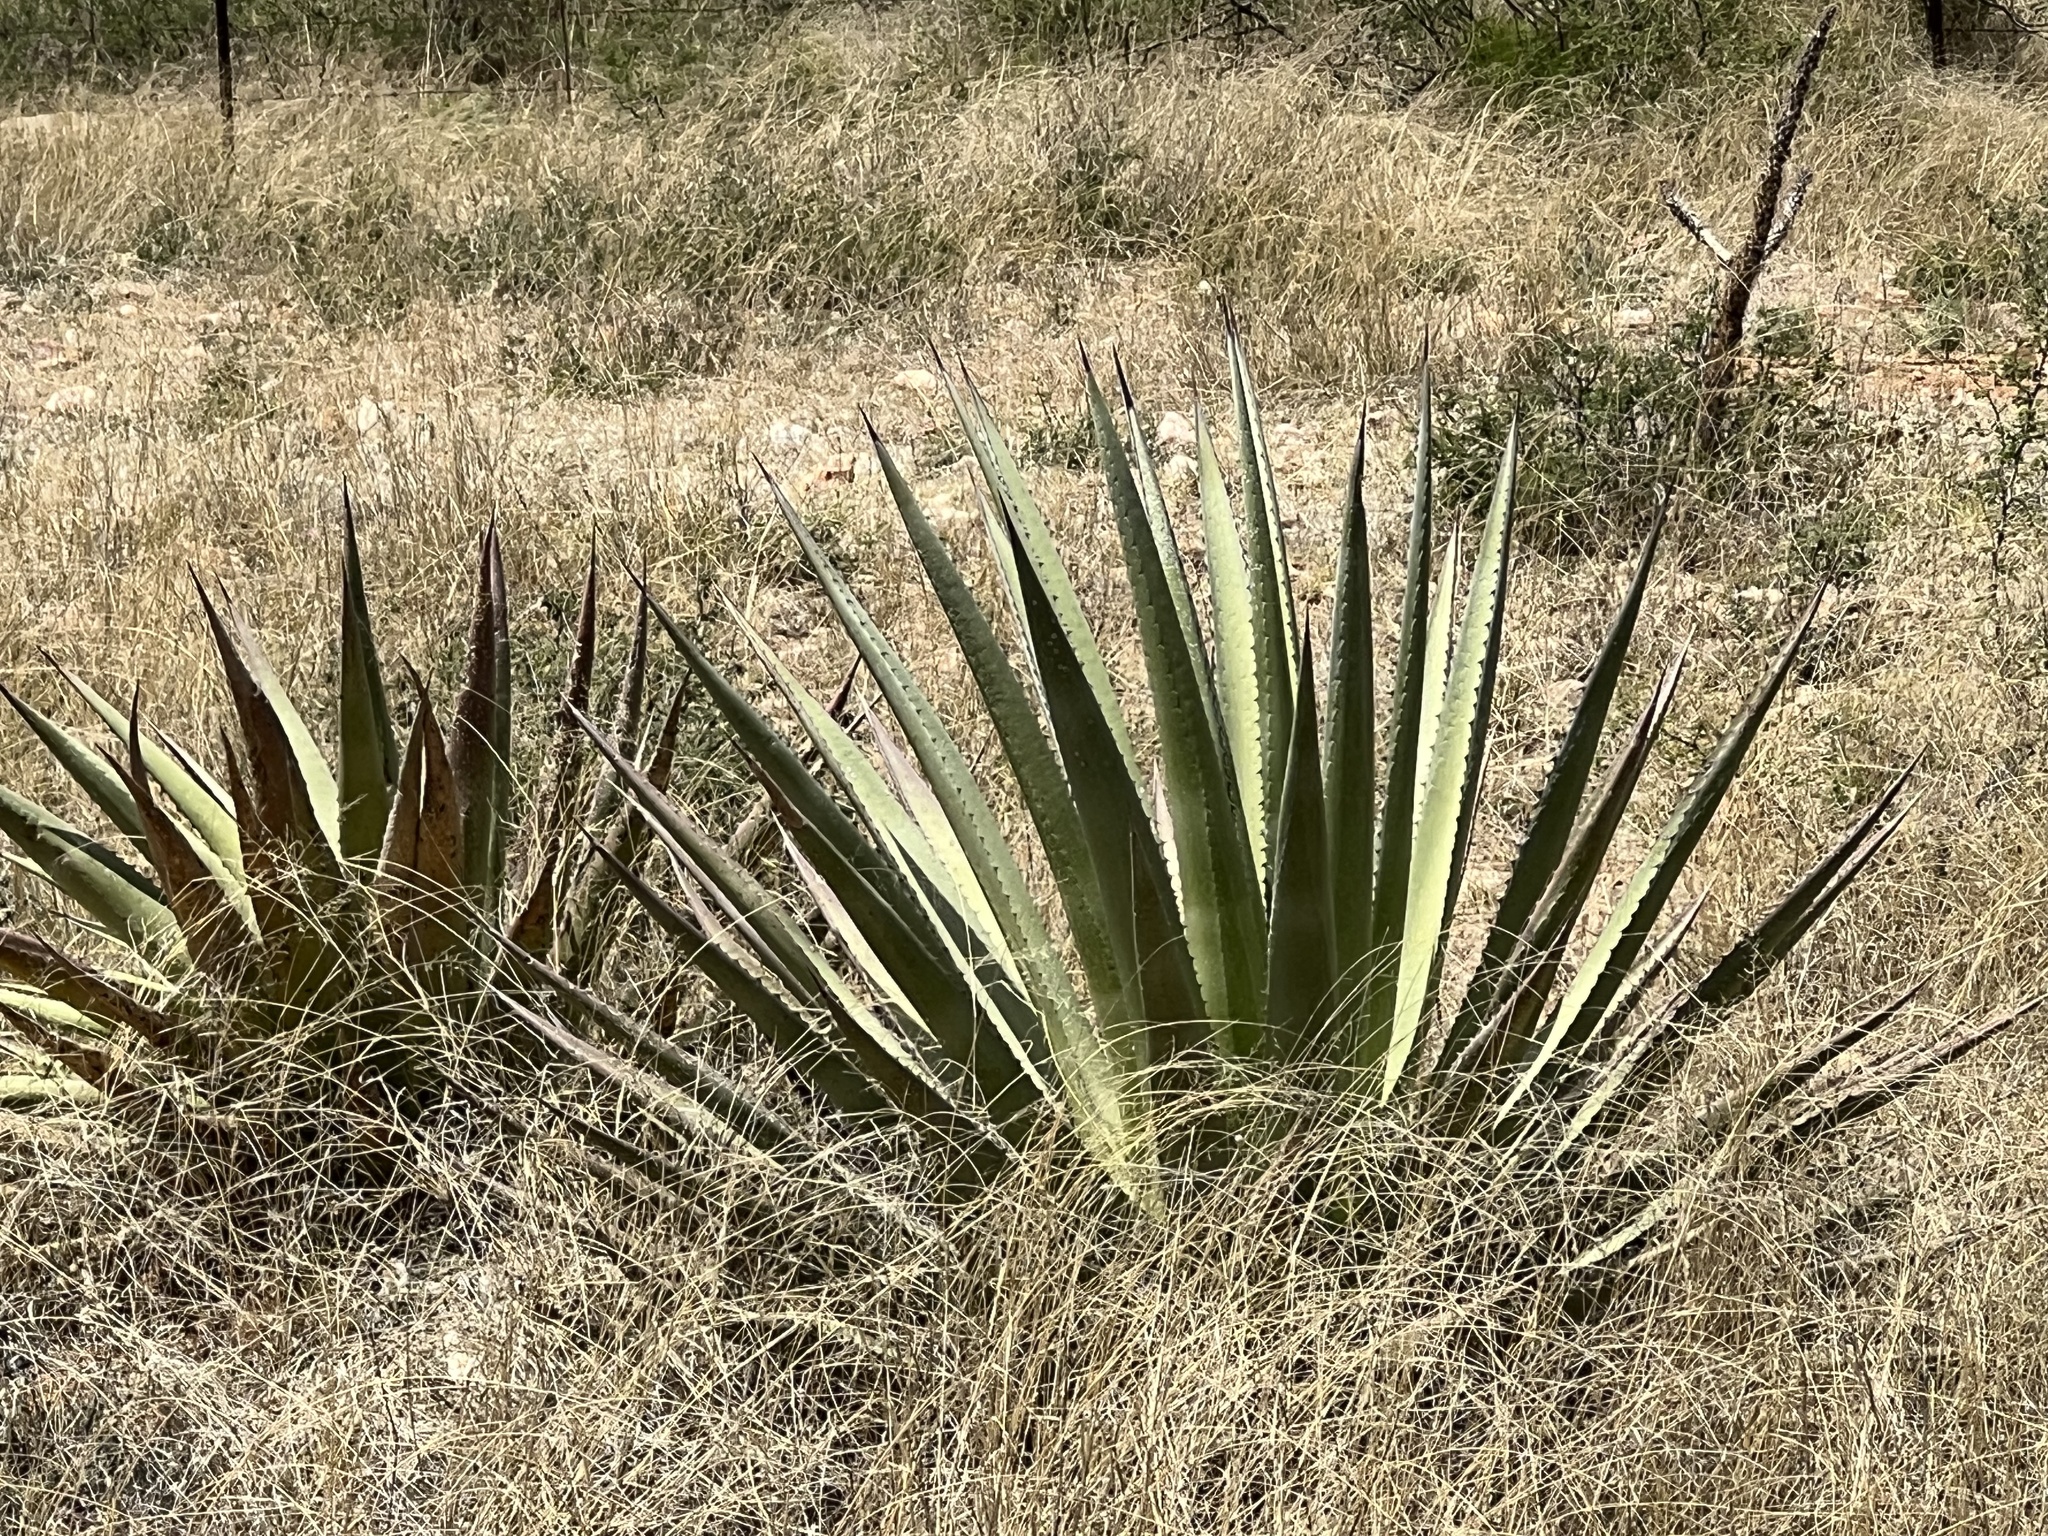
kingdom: Plantae
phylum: Tracheophyta
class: Liliopsida
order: Asparagales
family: Asparagaceae
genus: Agave
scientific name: Agave palmeri
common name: Palmer agave
